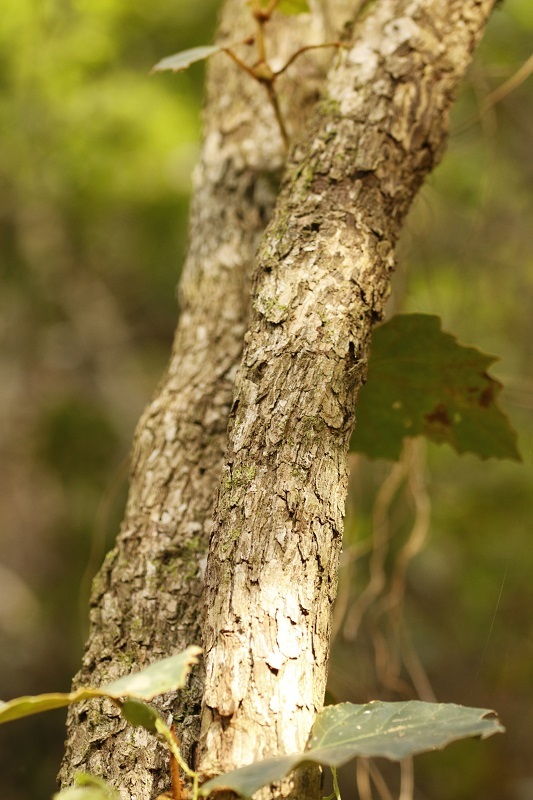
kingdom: Plantae
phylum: Tracheophyta
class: Magnoliopsida
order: Vitales
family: Vitaceae
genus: Rhoicissus
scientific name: Rhoicissus tomentosa
